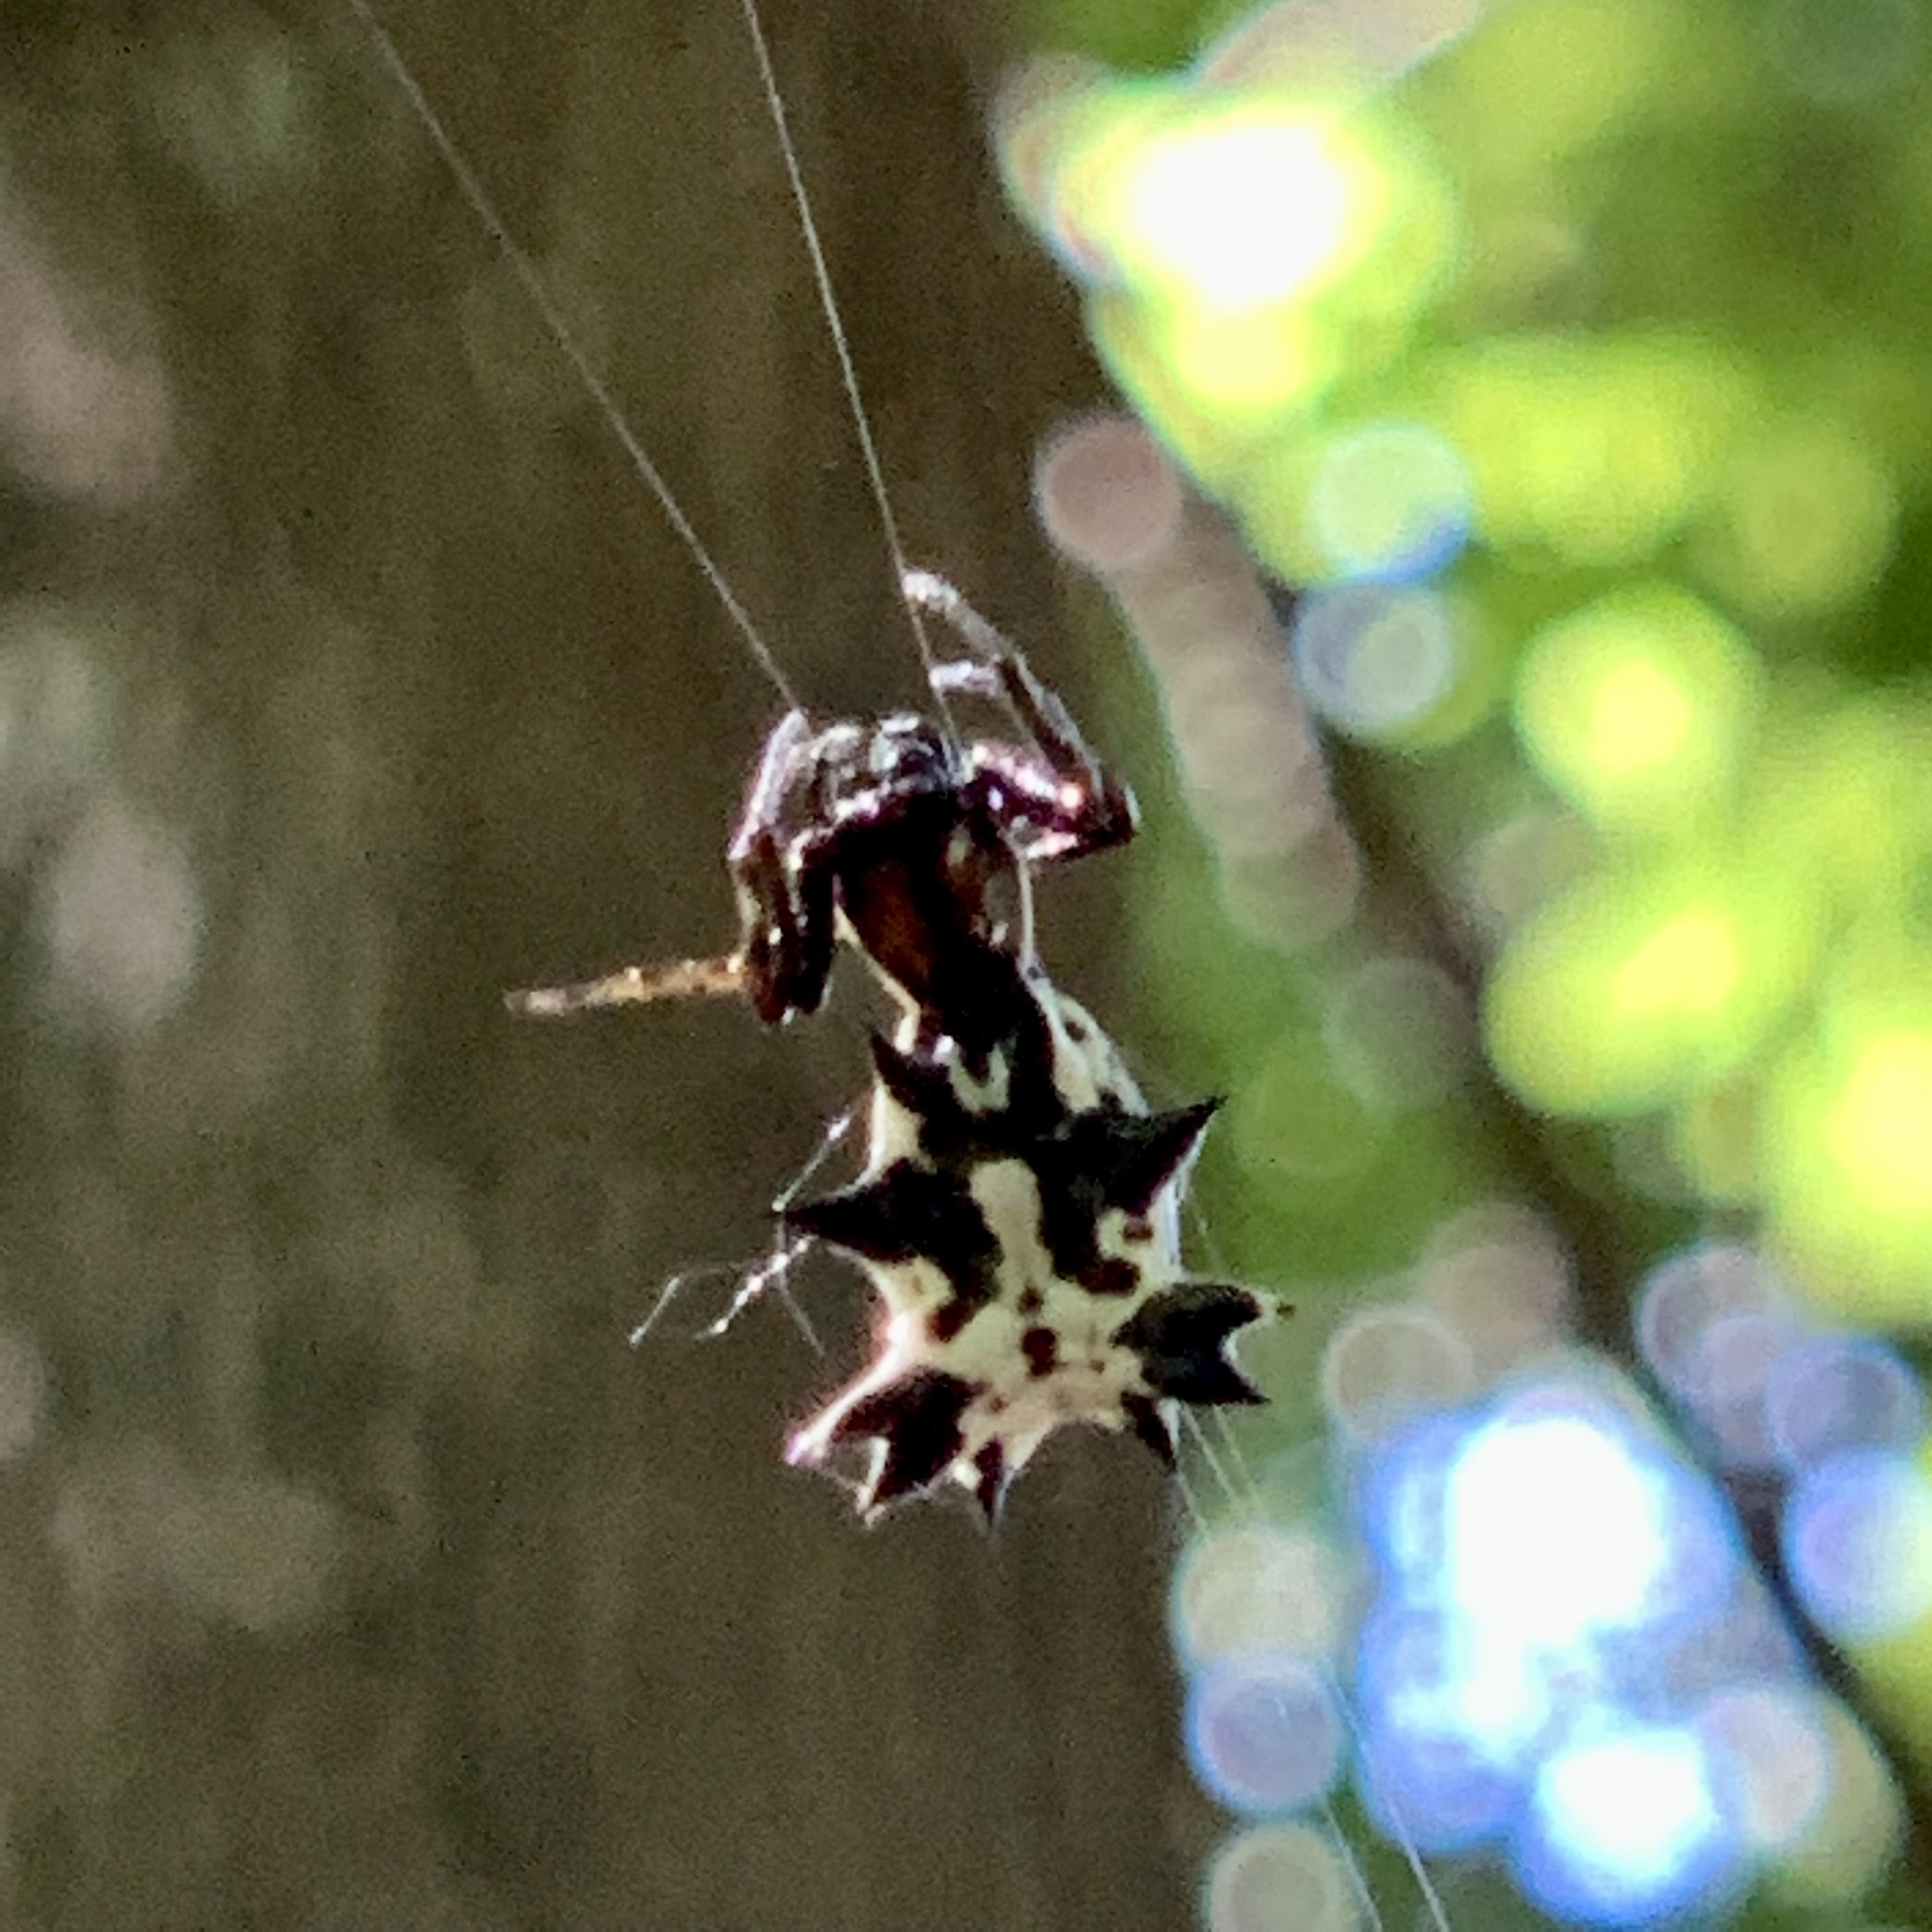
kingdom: Animalia
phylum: Arthropoda
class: Arachnida
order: Araneae
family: Araneidae
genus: Micrathena
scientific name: Micrathena gracilis
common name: Orb weavers
